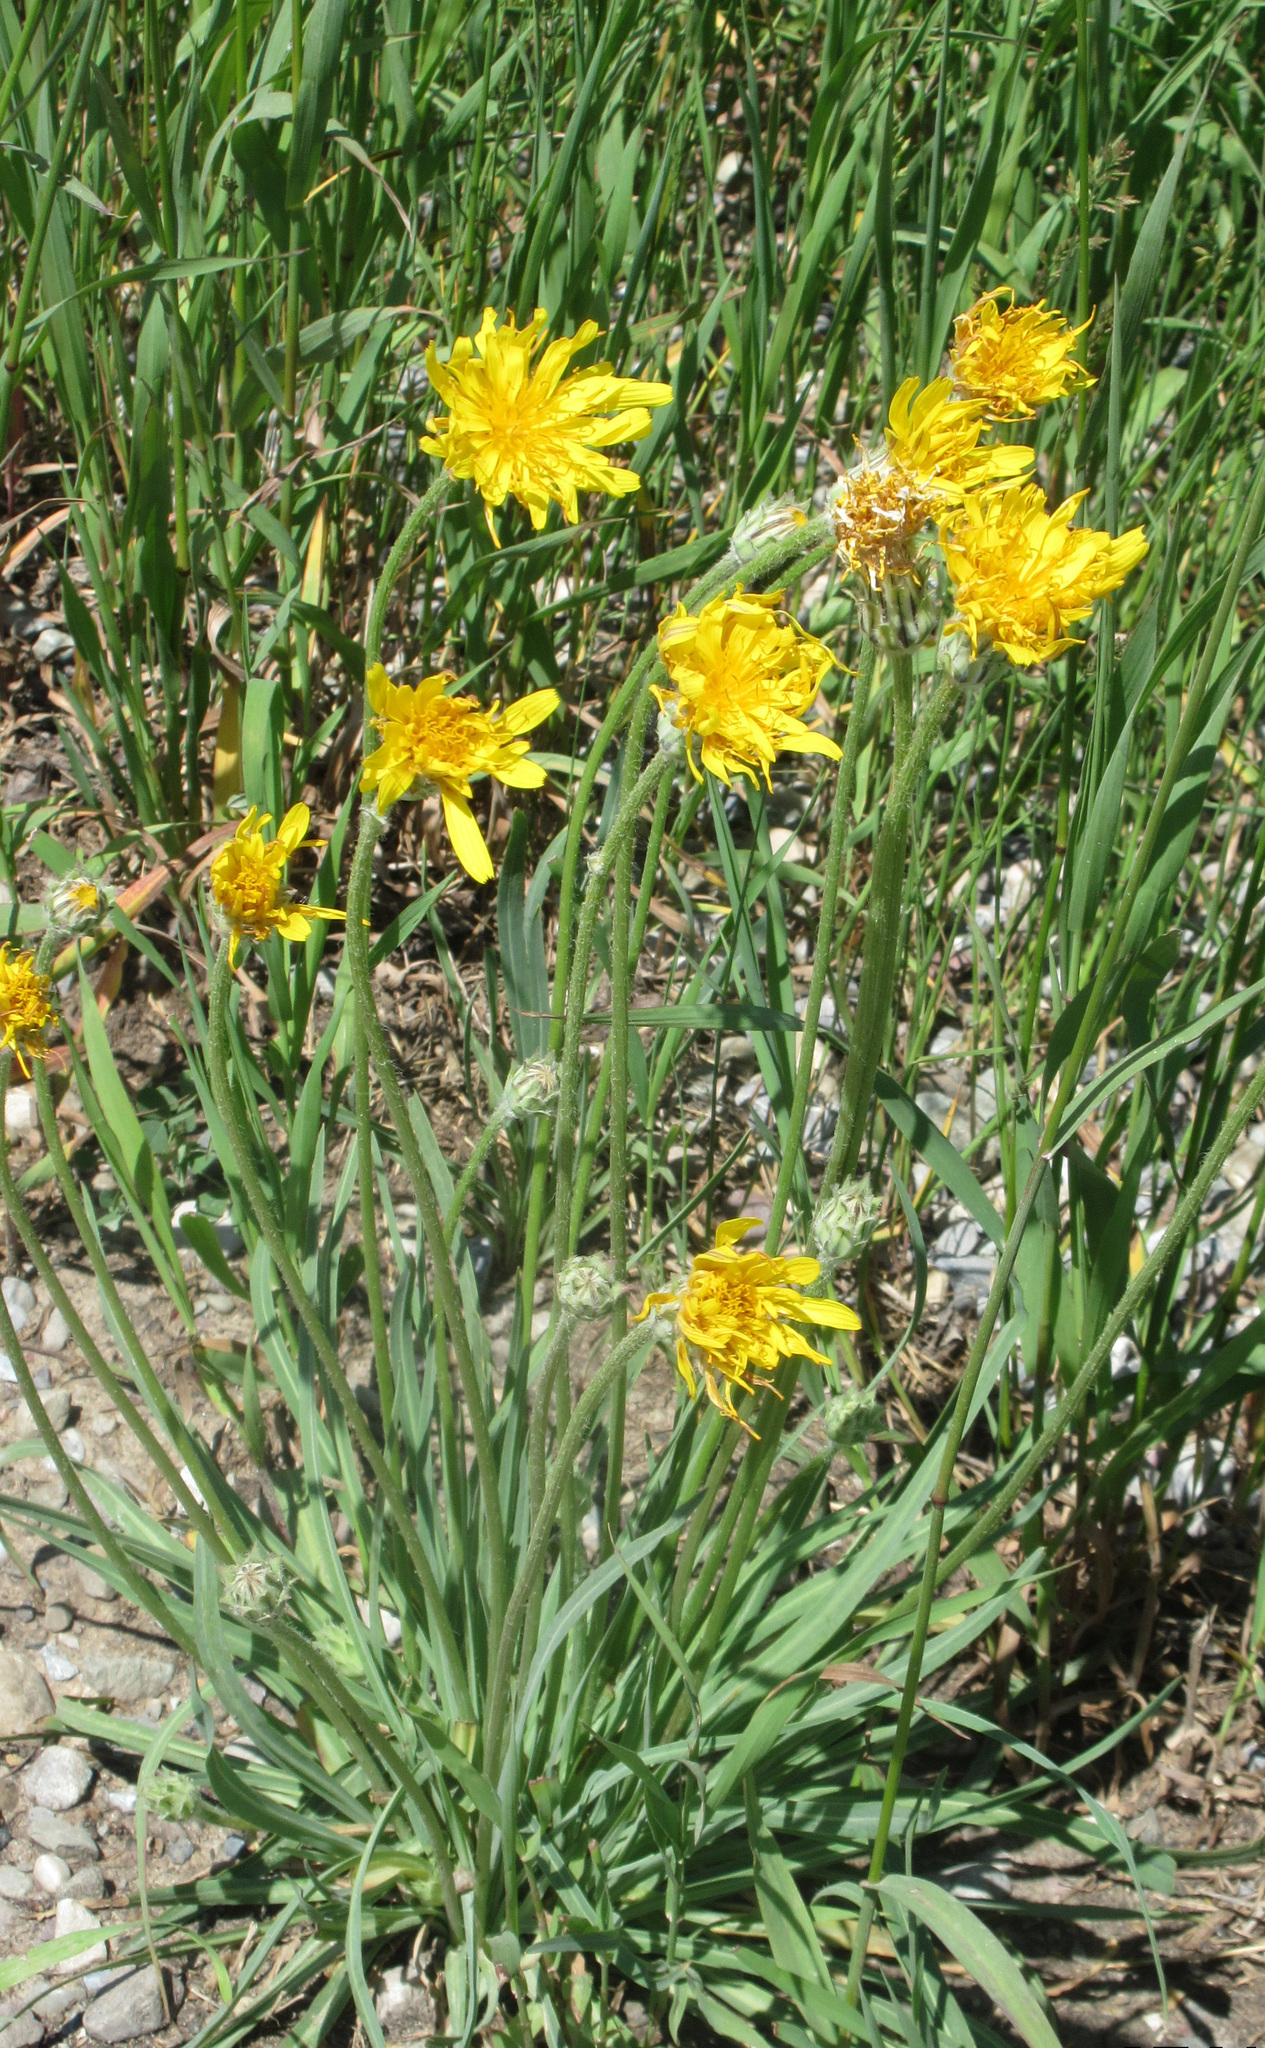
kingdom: Plantae
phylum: Tracheophyta
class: Magnoliopsida
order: Asterales
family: Asteraceae
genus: Agoseris
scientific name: Agoseris glauca
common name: Prairie agoseris
